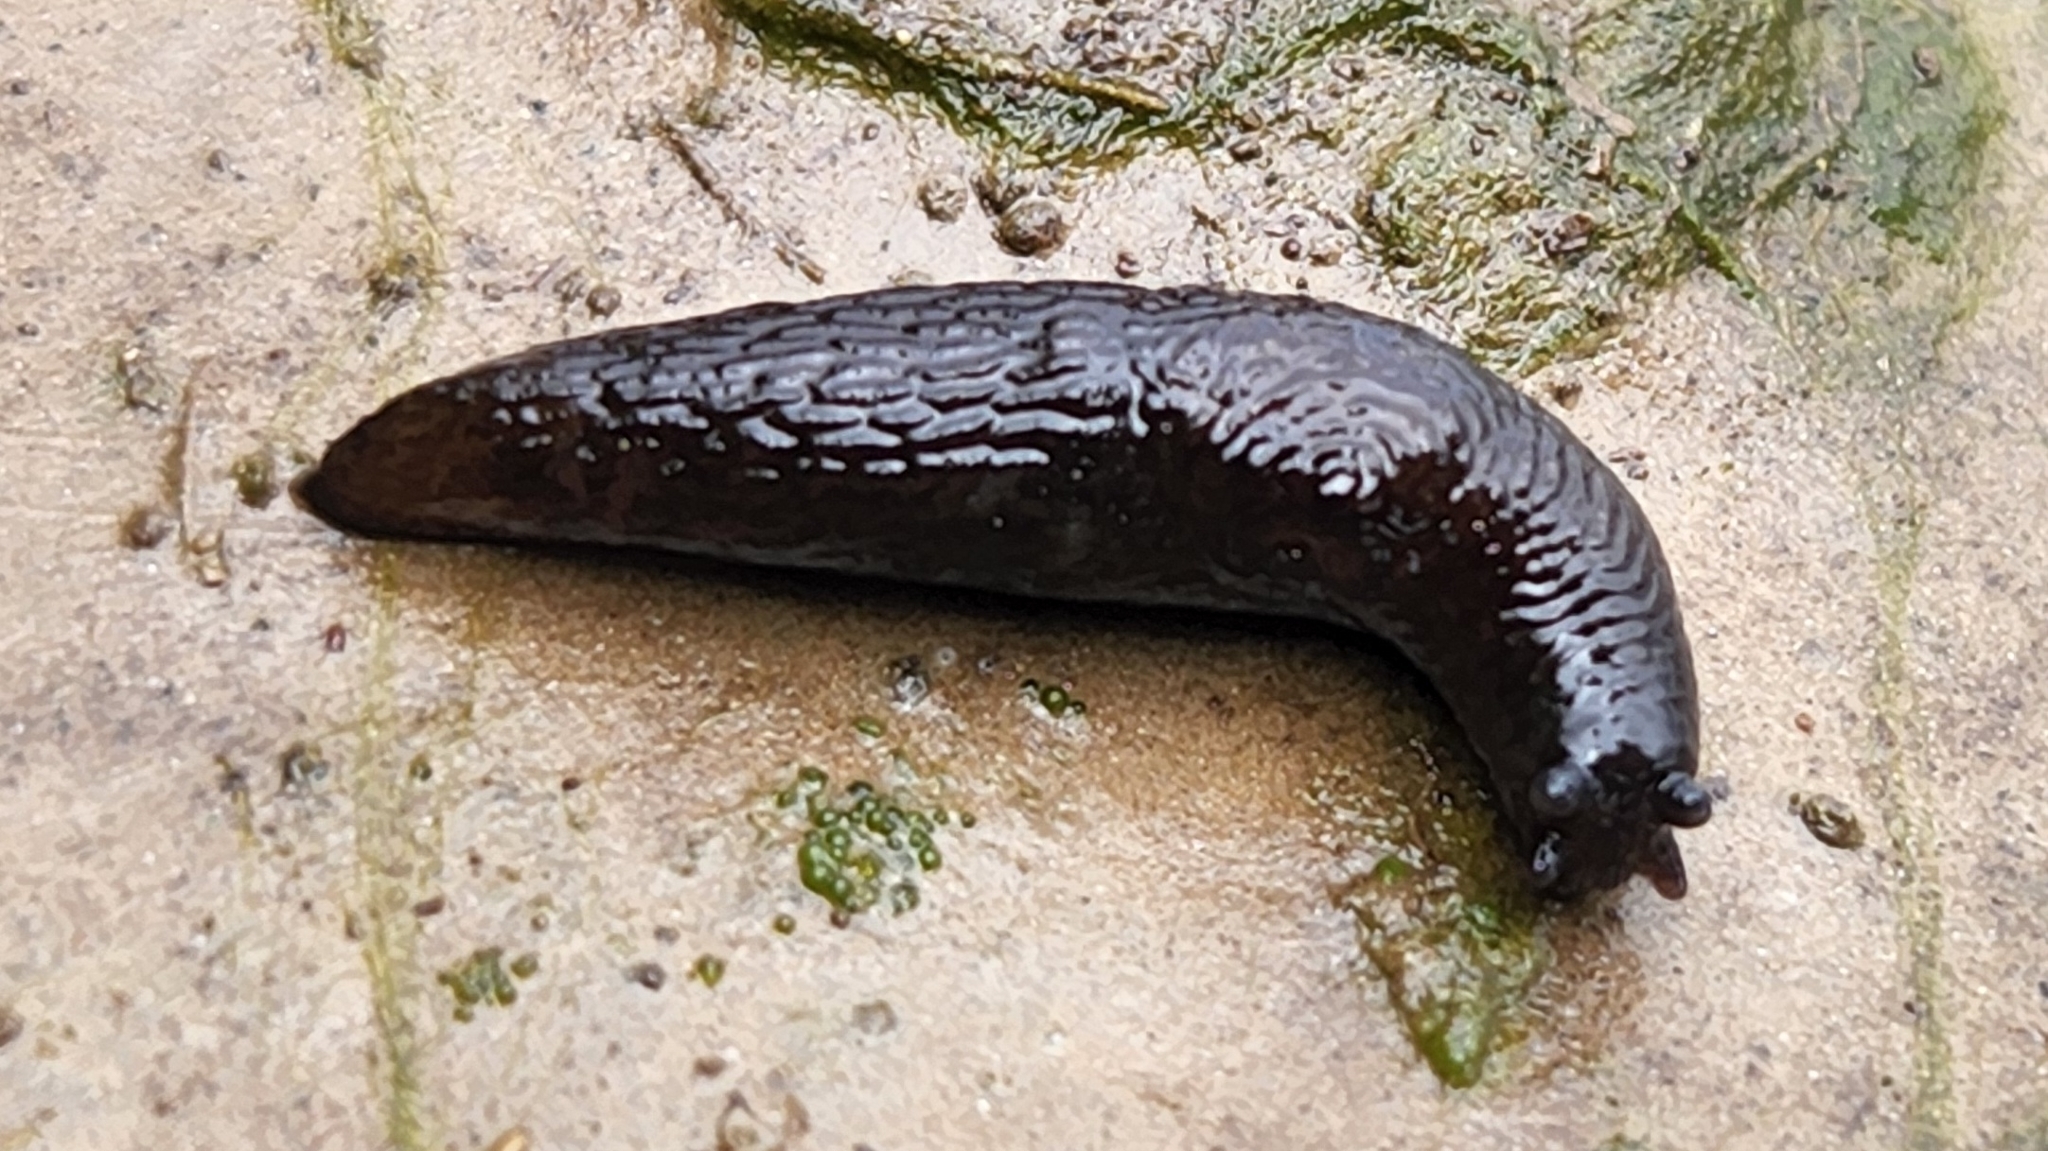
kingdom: Animalia
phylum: Mollusca
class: Gastropoda
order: Stylommatophora
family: Agriolimacidae
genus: Deroceras
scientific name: Deroceras laeve
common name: Marsh slug
